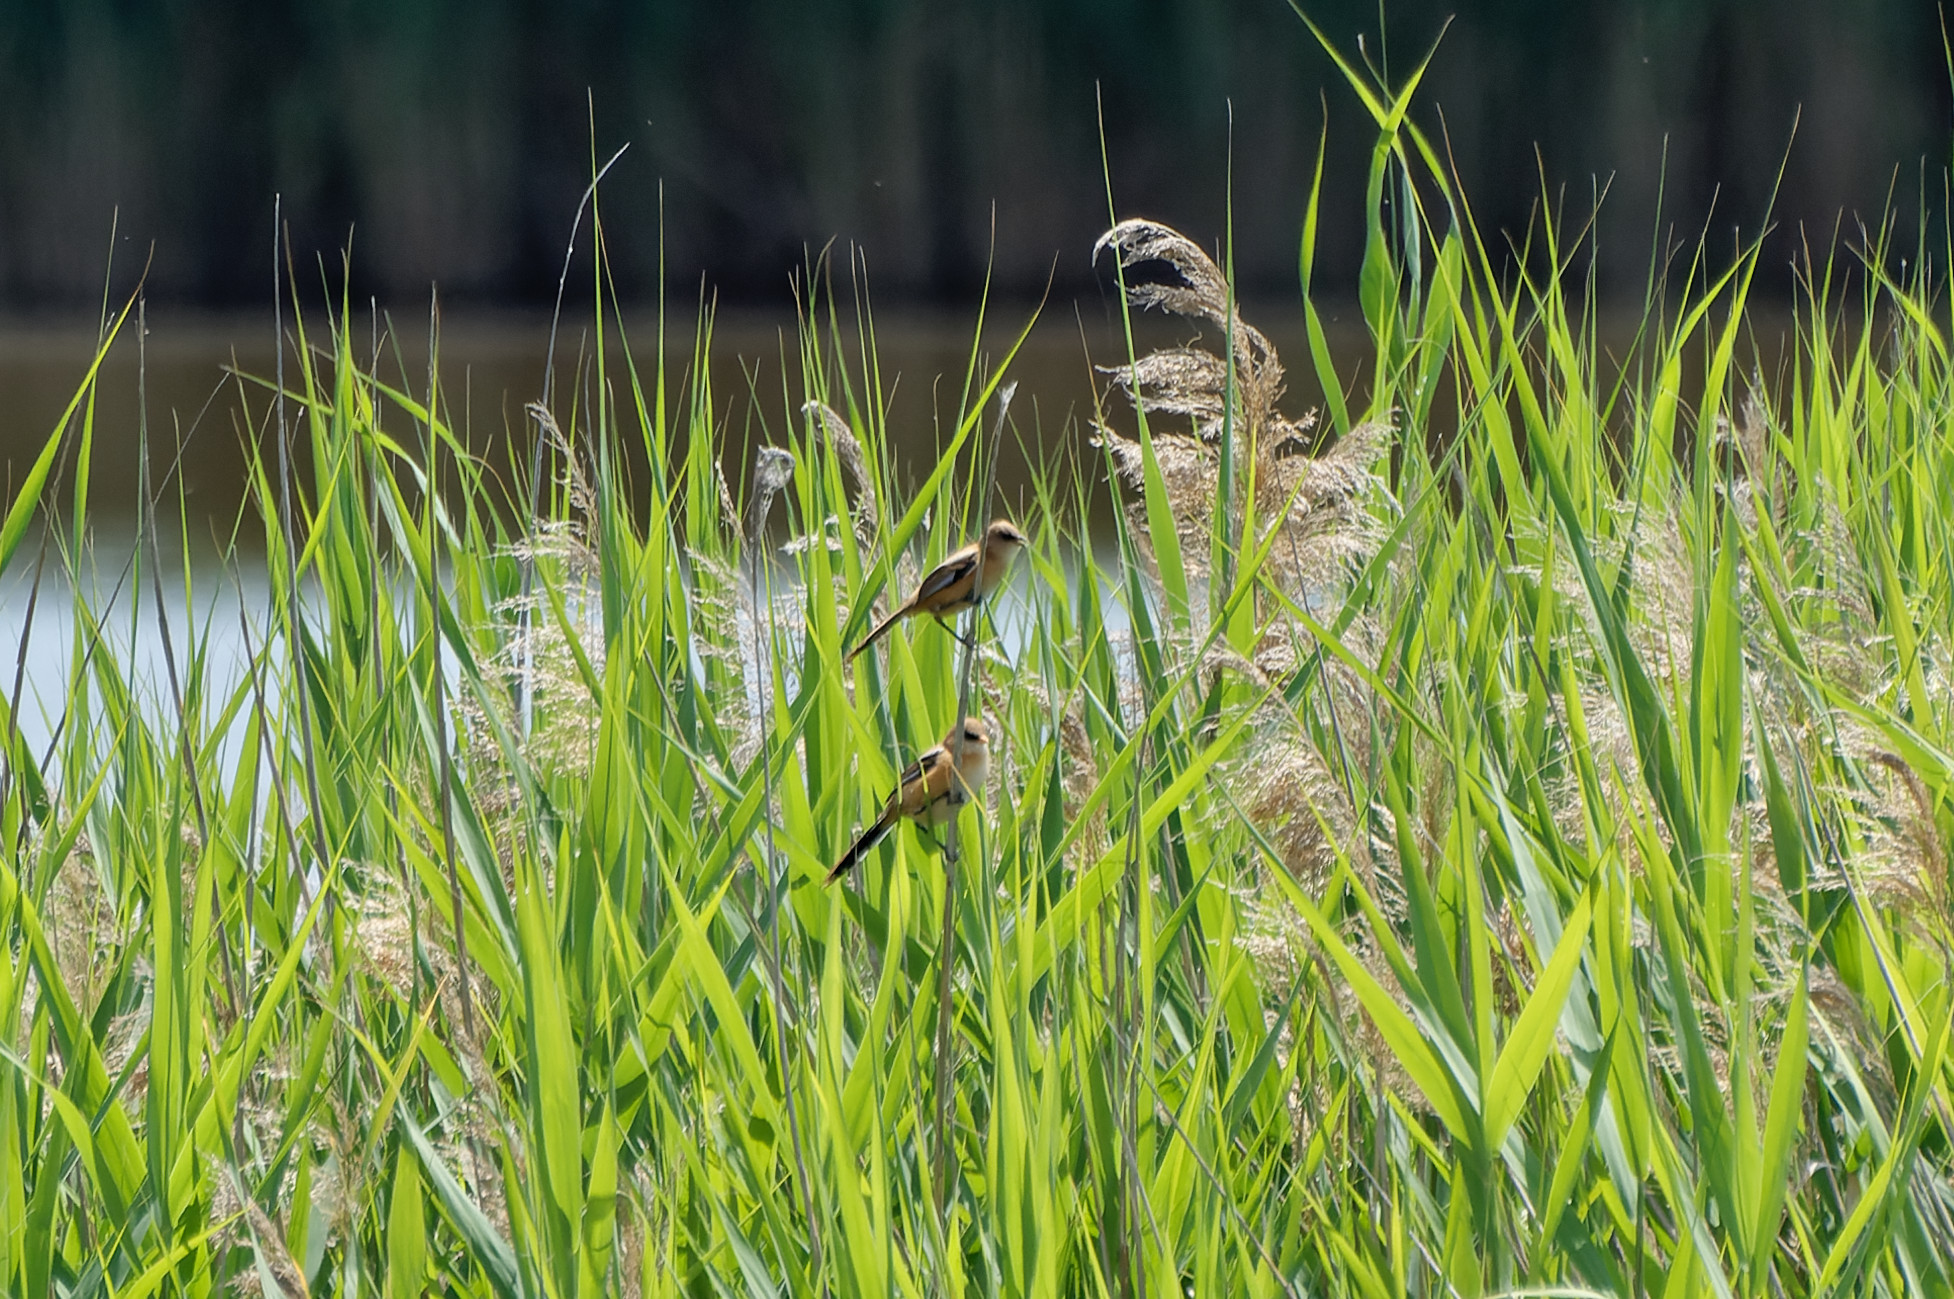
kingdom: Animalia
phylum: Chordata
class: Aves
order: Passeriformes
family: Panuridae
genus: Panurus
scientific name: Panurus biarmicus
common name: Bearded reedling
